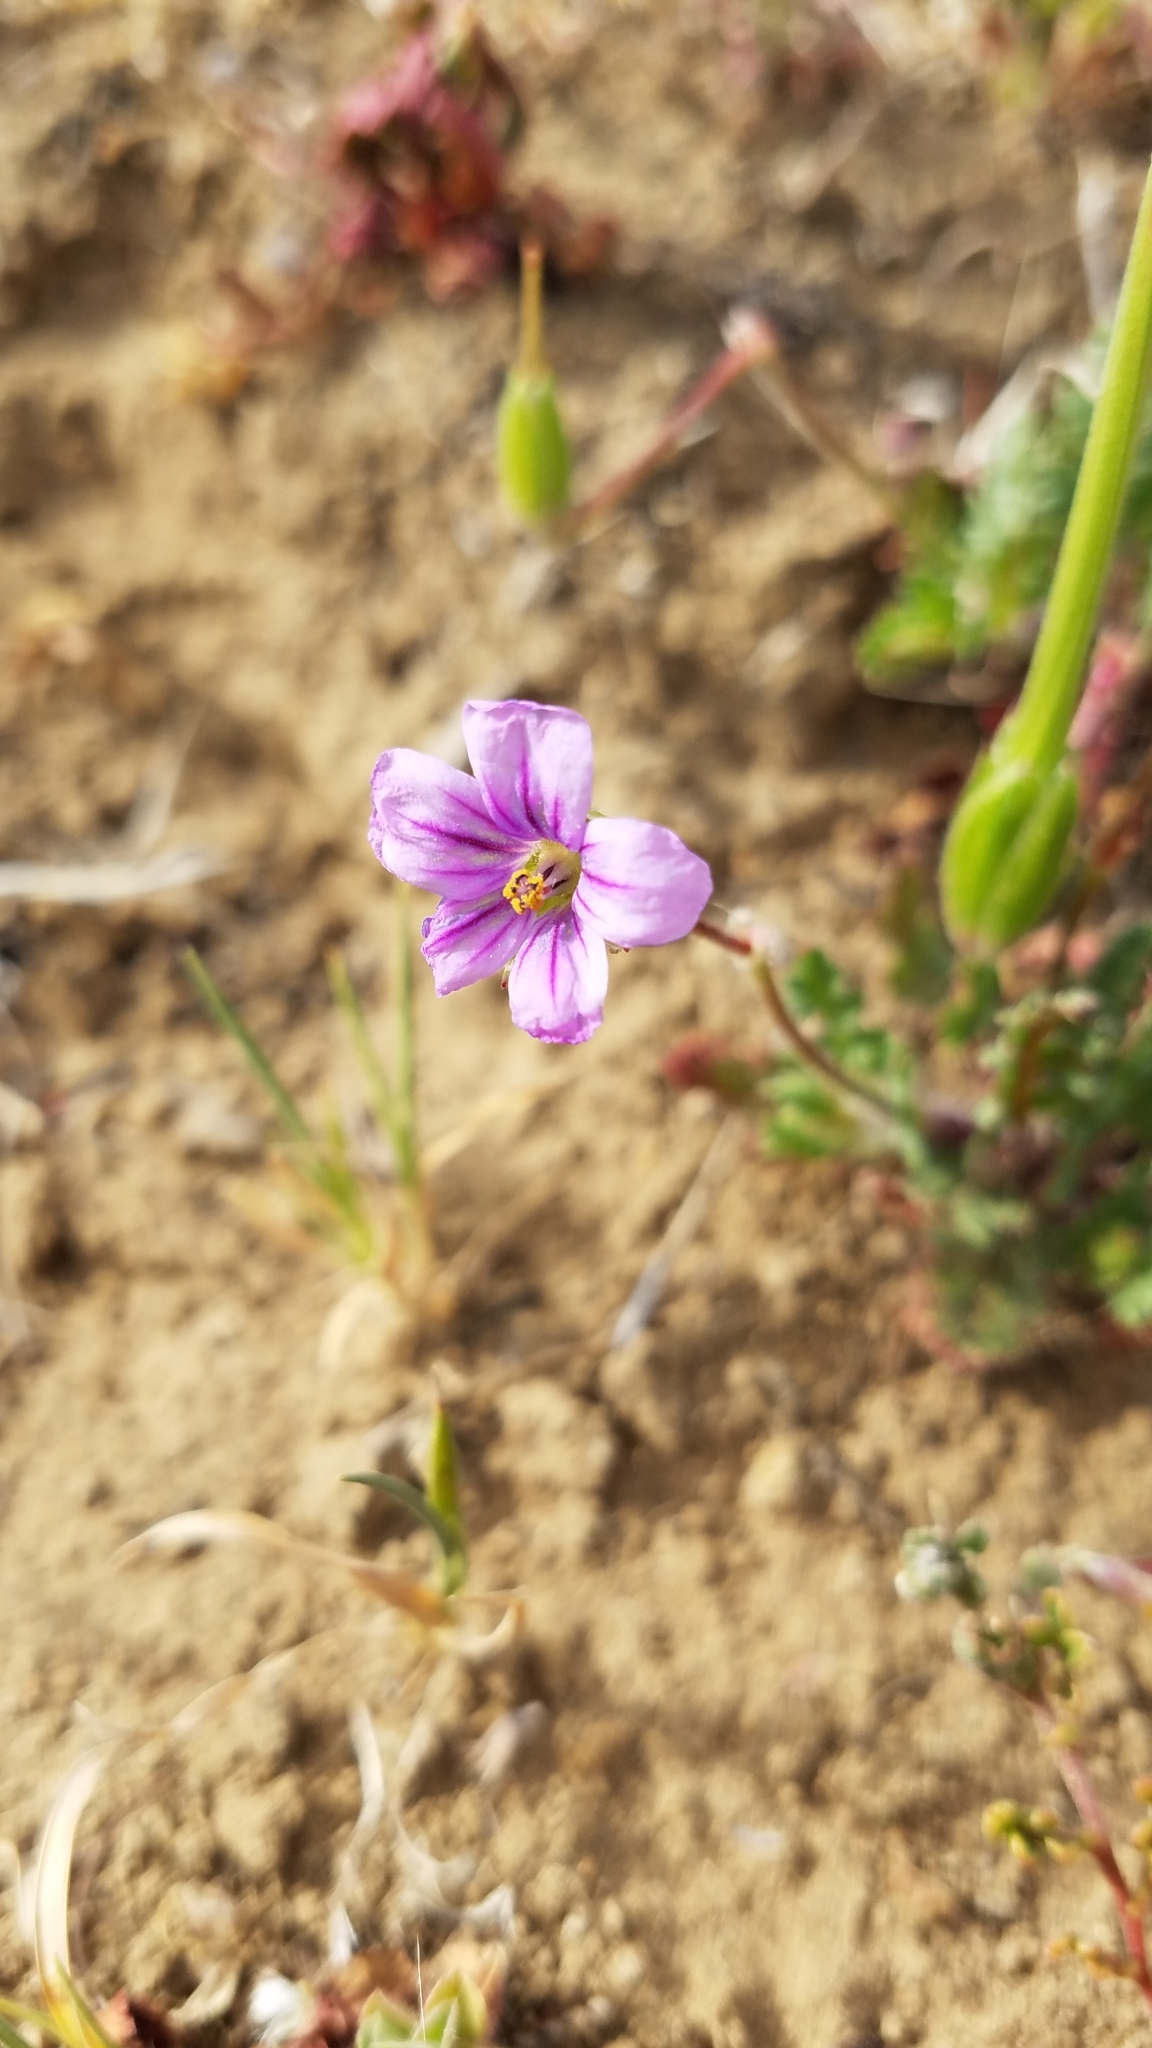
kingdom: Plantae
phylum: Tracheophyta
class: Magnoliopsida
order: Geraniales
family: Geraniaceae
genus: Erodium
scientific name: Erodium botrys
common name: Mediterranean stork's-bill
